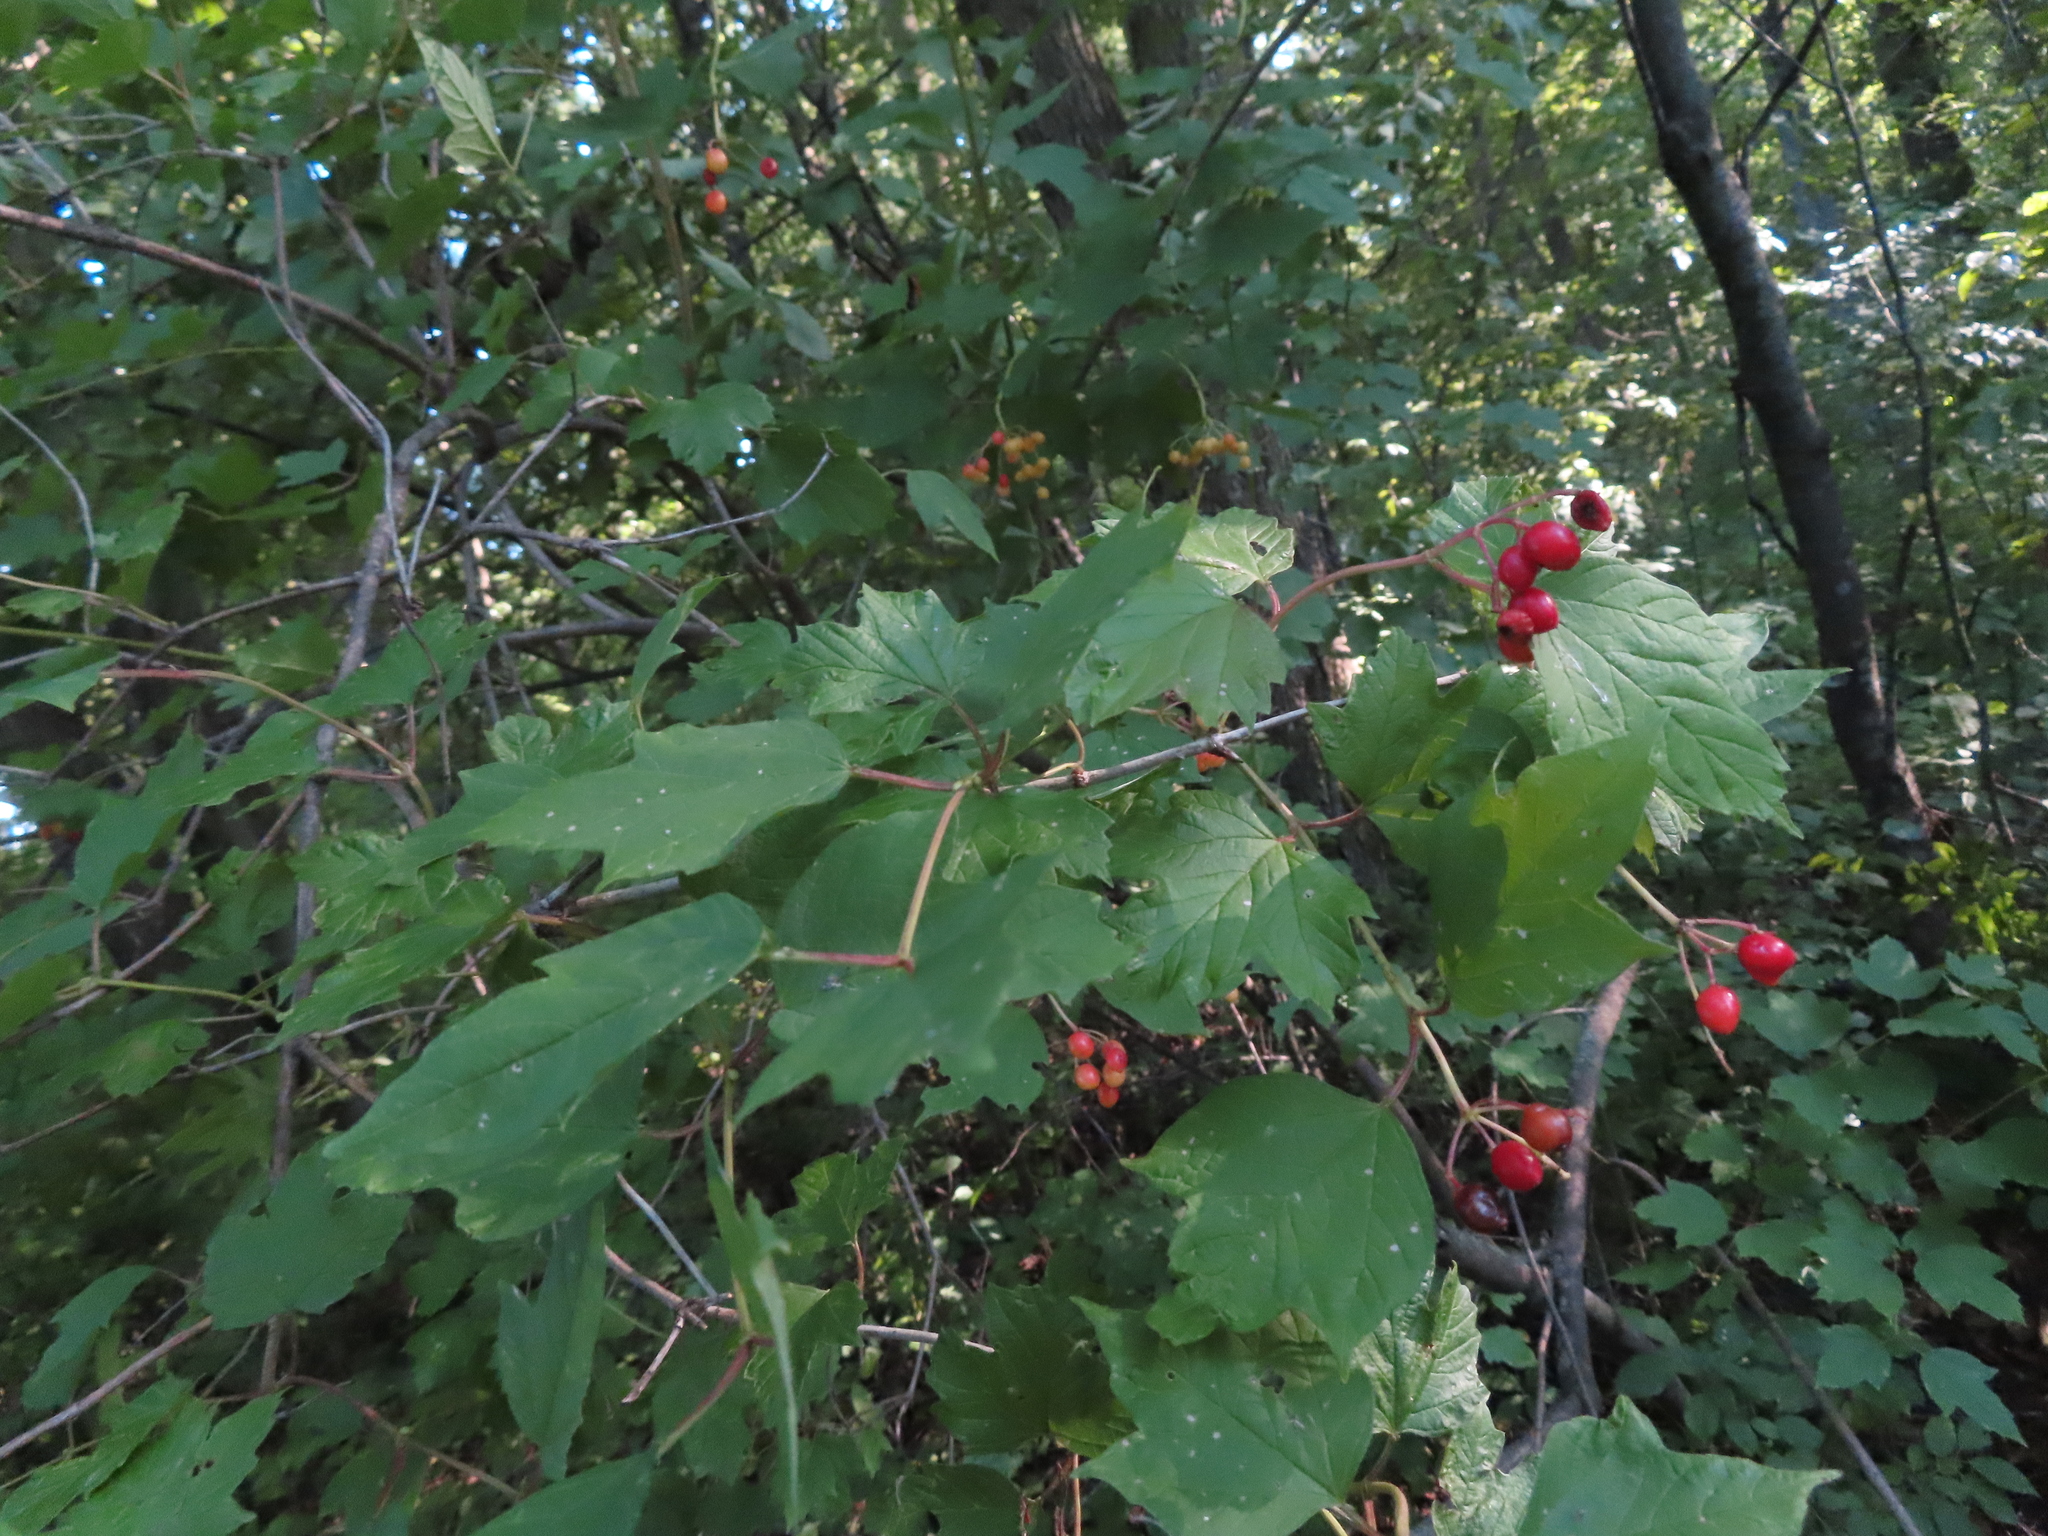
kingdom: Plantae
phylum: Tracheophyta
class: Magnoliopsida
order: Dipsacales
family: Viburnaceae
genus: Viburnum
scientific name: Viburnum opulus
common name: Guelder-rose
